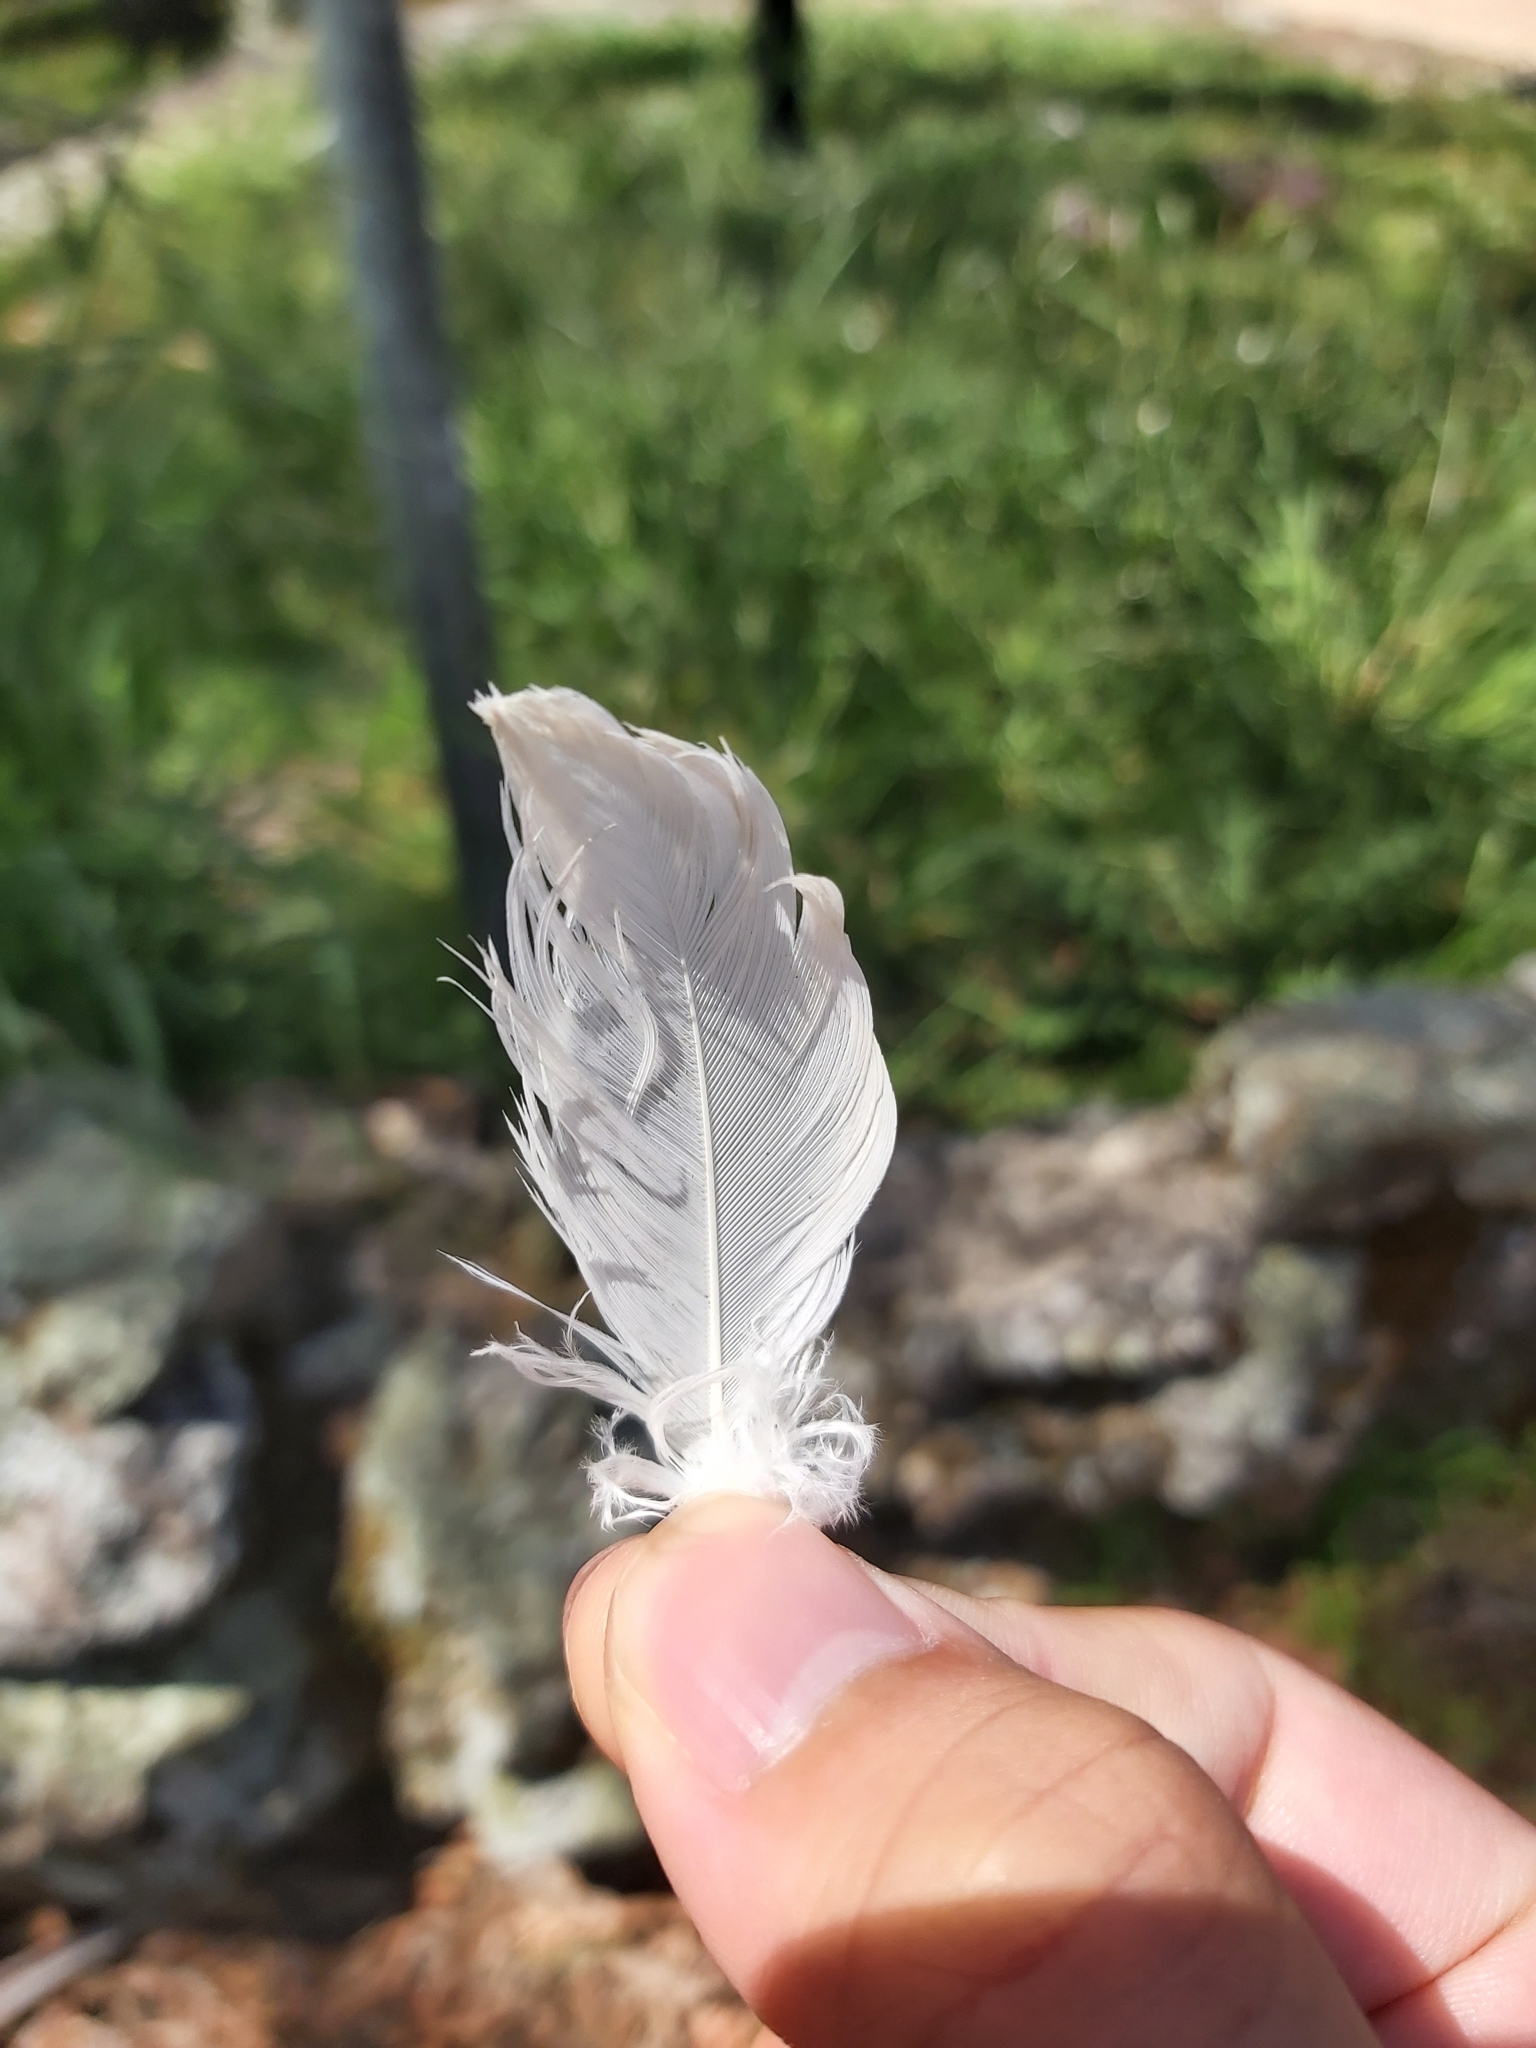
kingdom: Animalia
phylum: Chordata
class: Aves
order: Psittaciformes
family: Psittacidae
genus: Cacatua
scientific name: Cacatua galerita
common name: Sulphur-crested cockatoo
